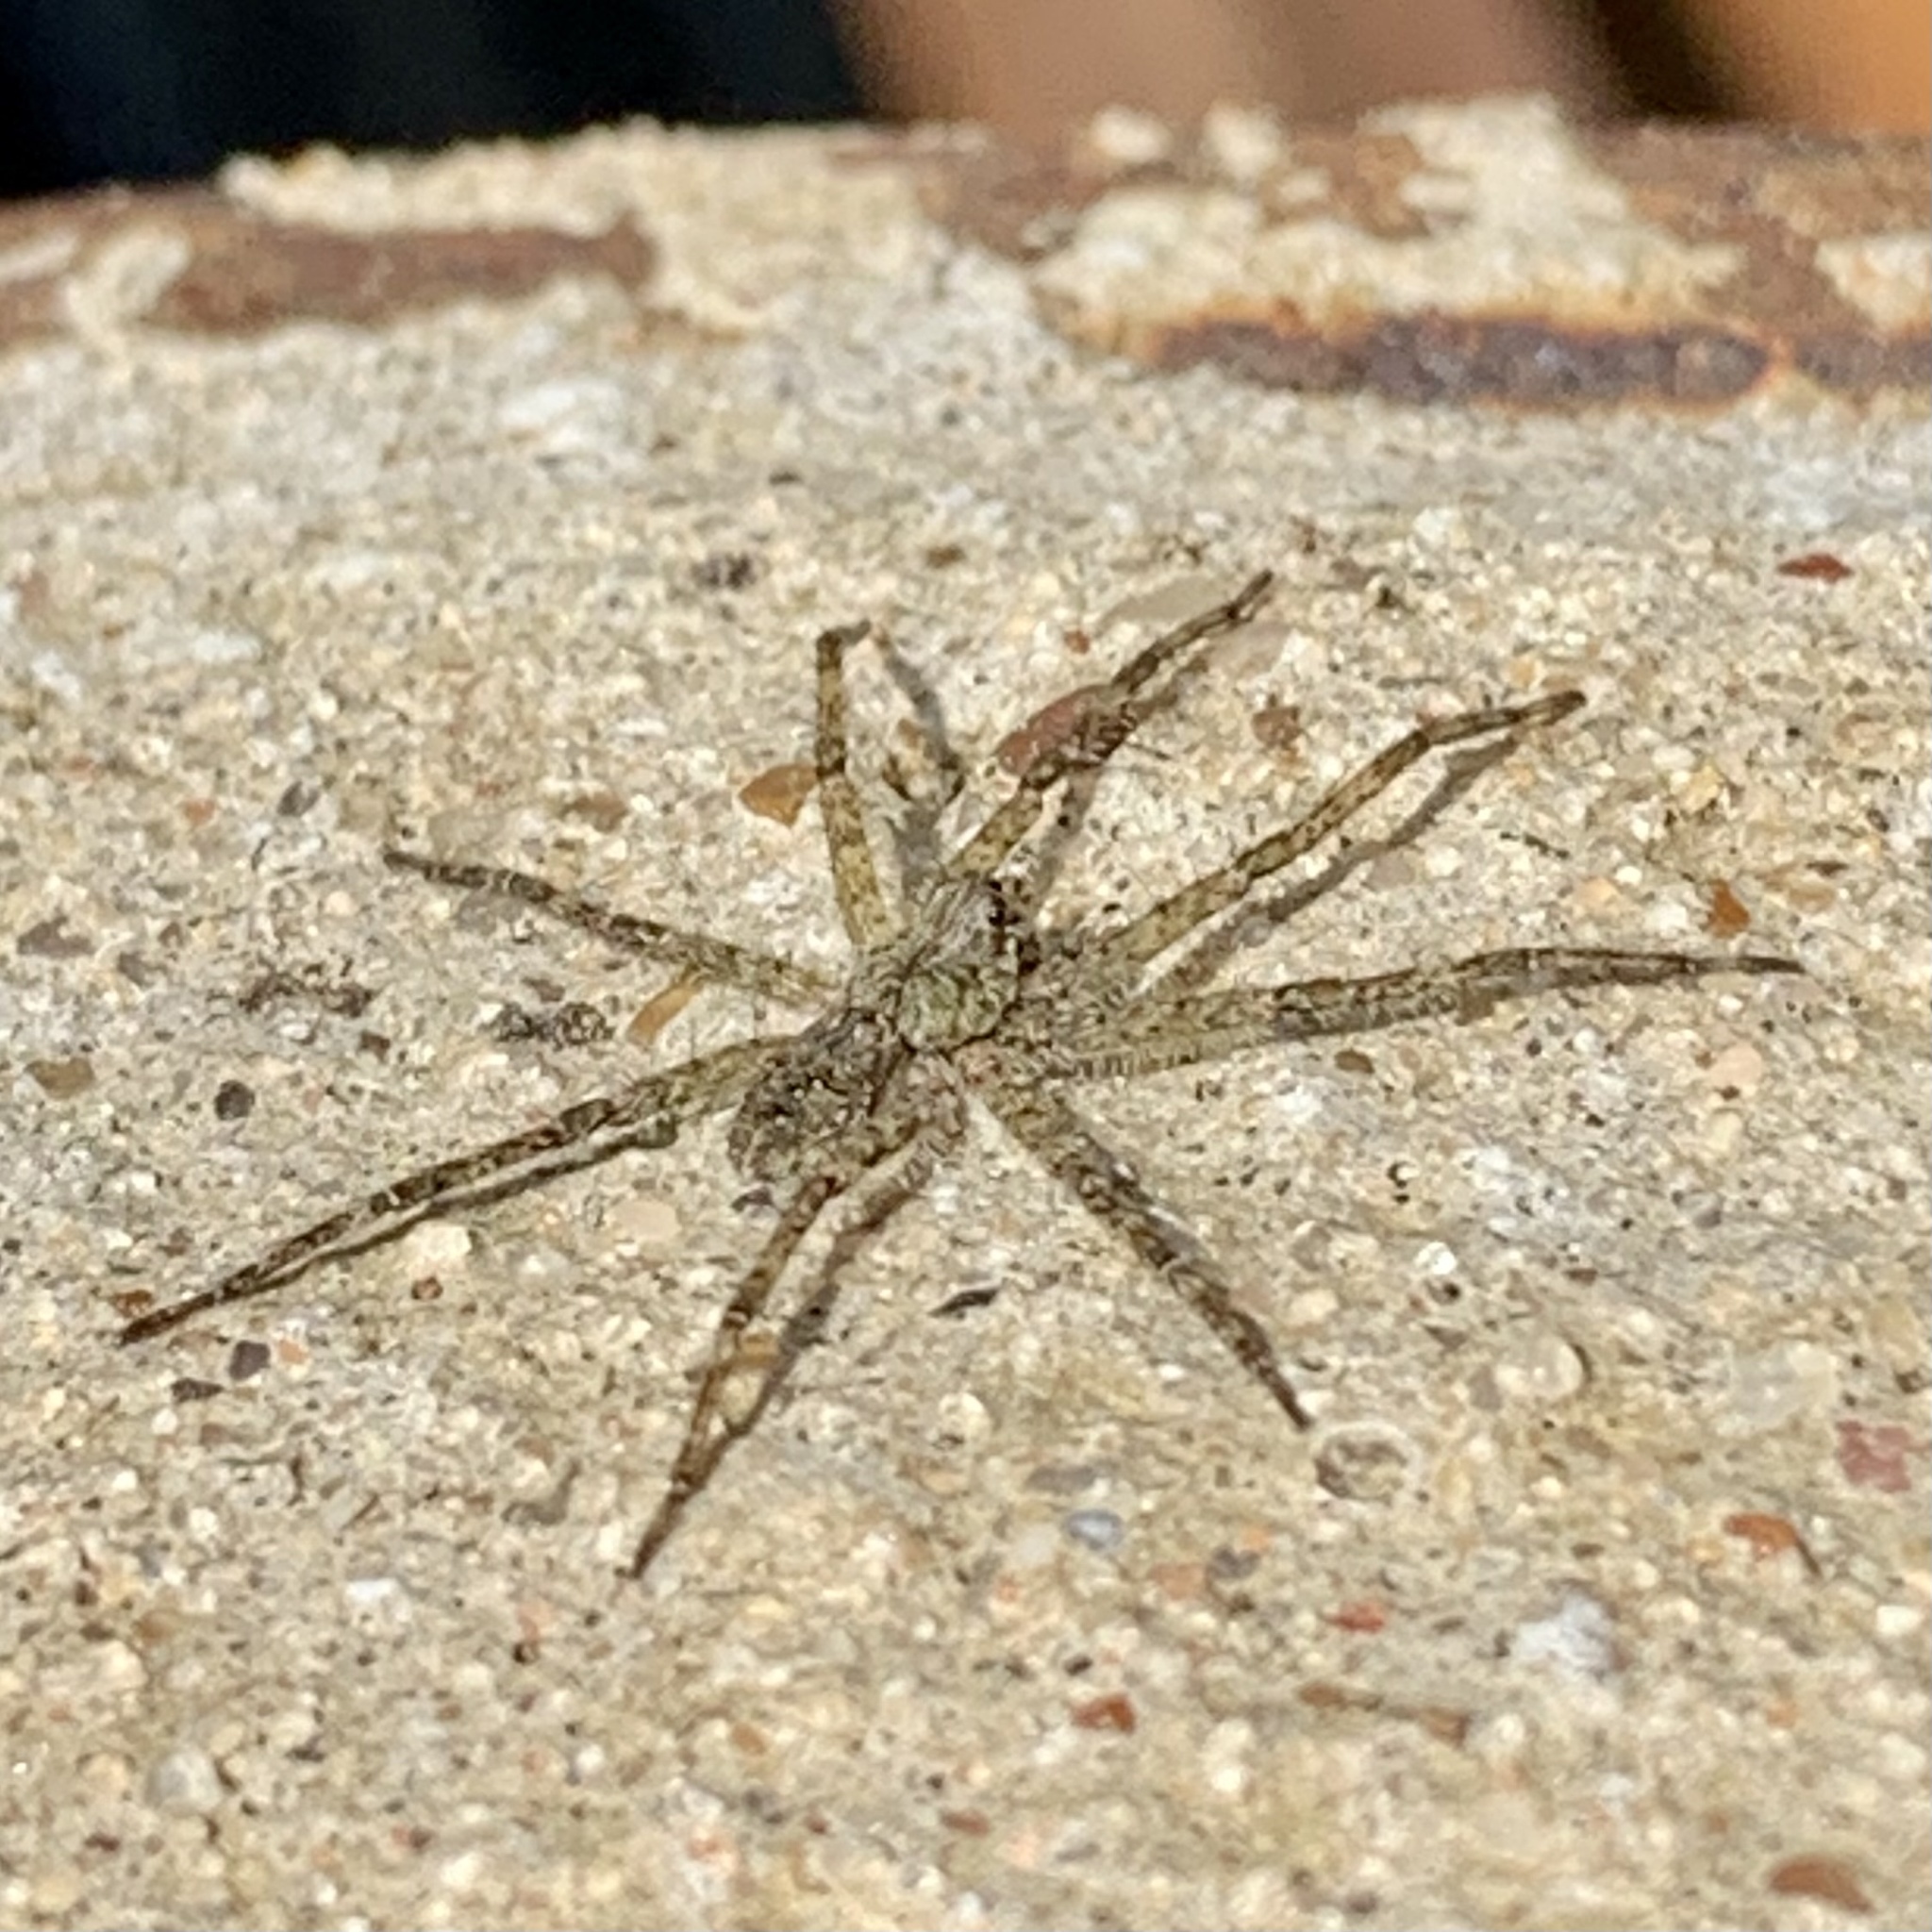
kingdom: Animalia
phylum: Arthropoda
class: Arachnida
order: Araneae
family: Pisauridae
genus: Dolomedes
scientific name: Dolomedes albineus
